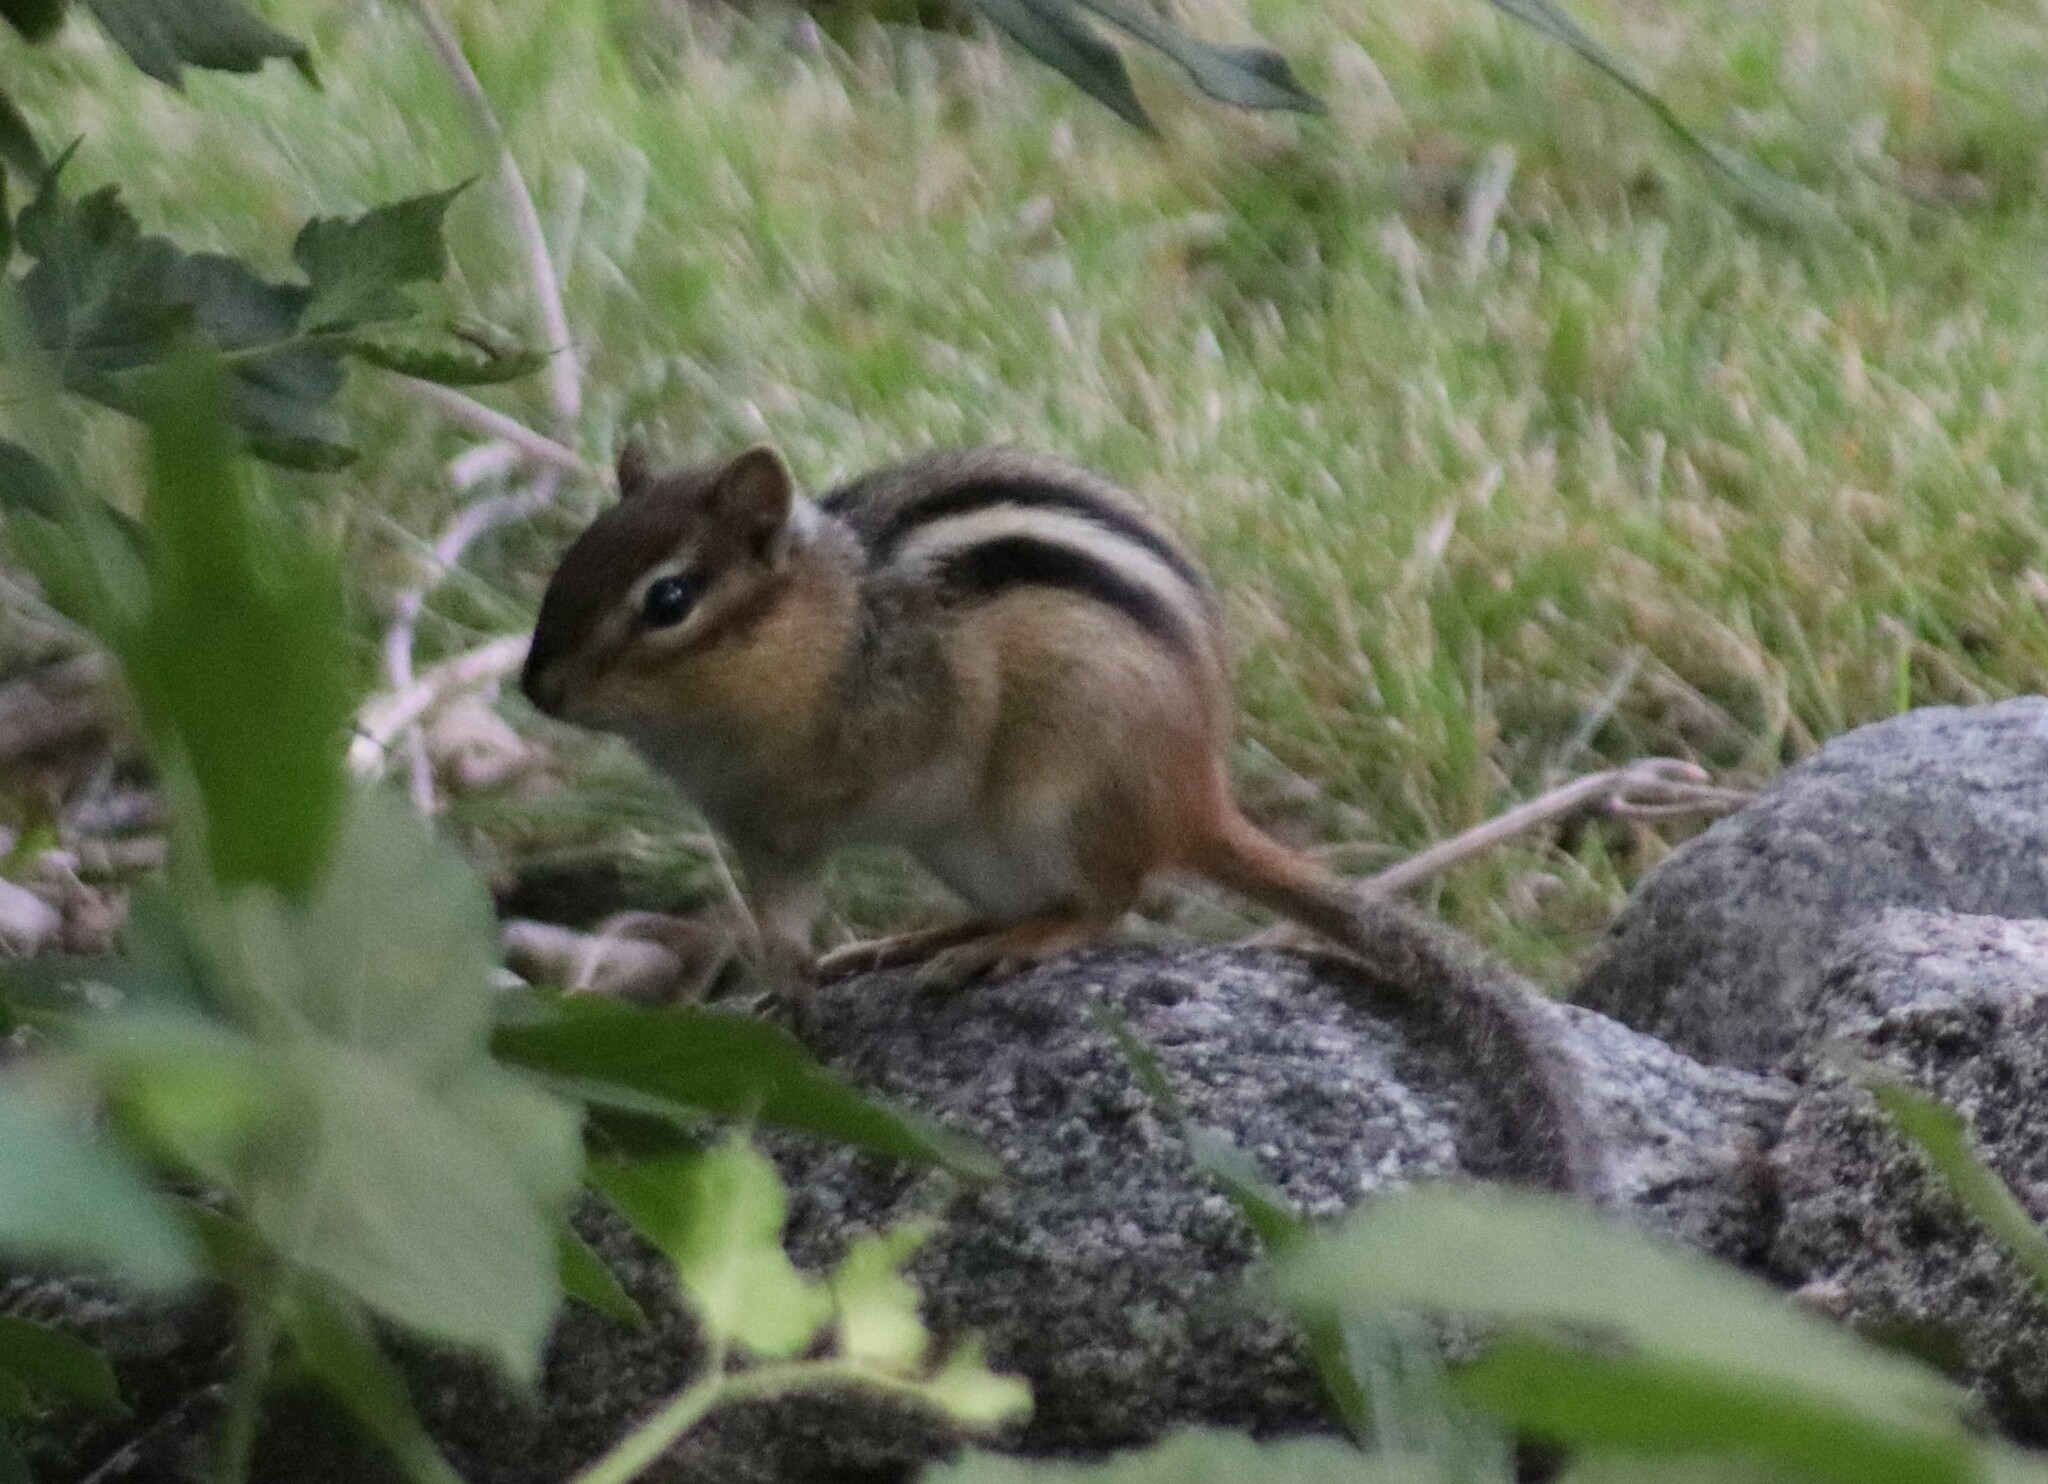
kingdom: Animalia
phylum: Chordata
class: Mammalia
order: Rodentia
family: Sciuridae
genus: Tamias
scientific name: Tamias striatus
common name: Eastern chipmunk
